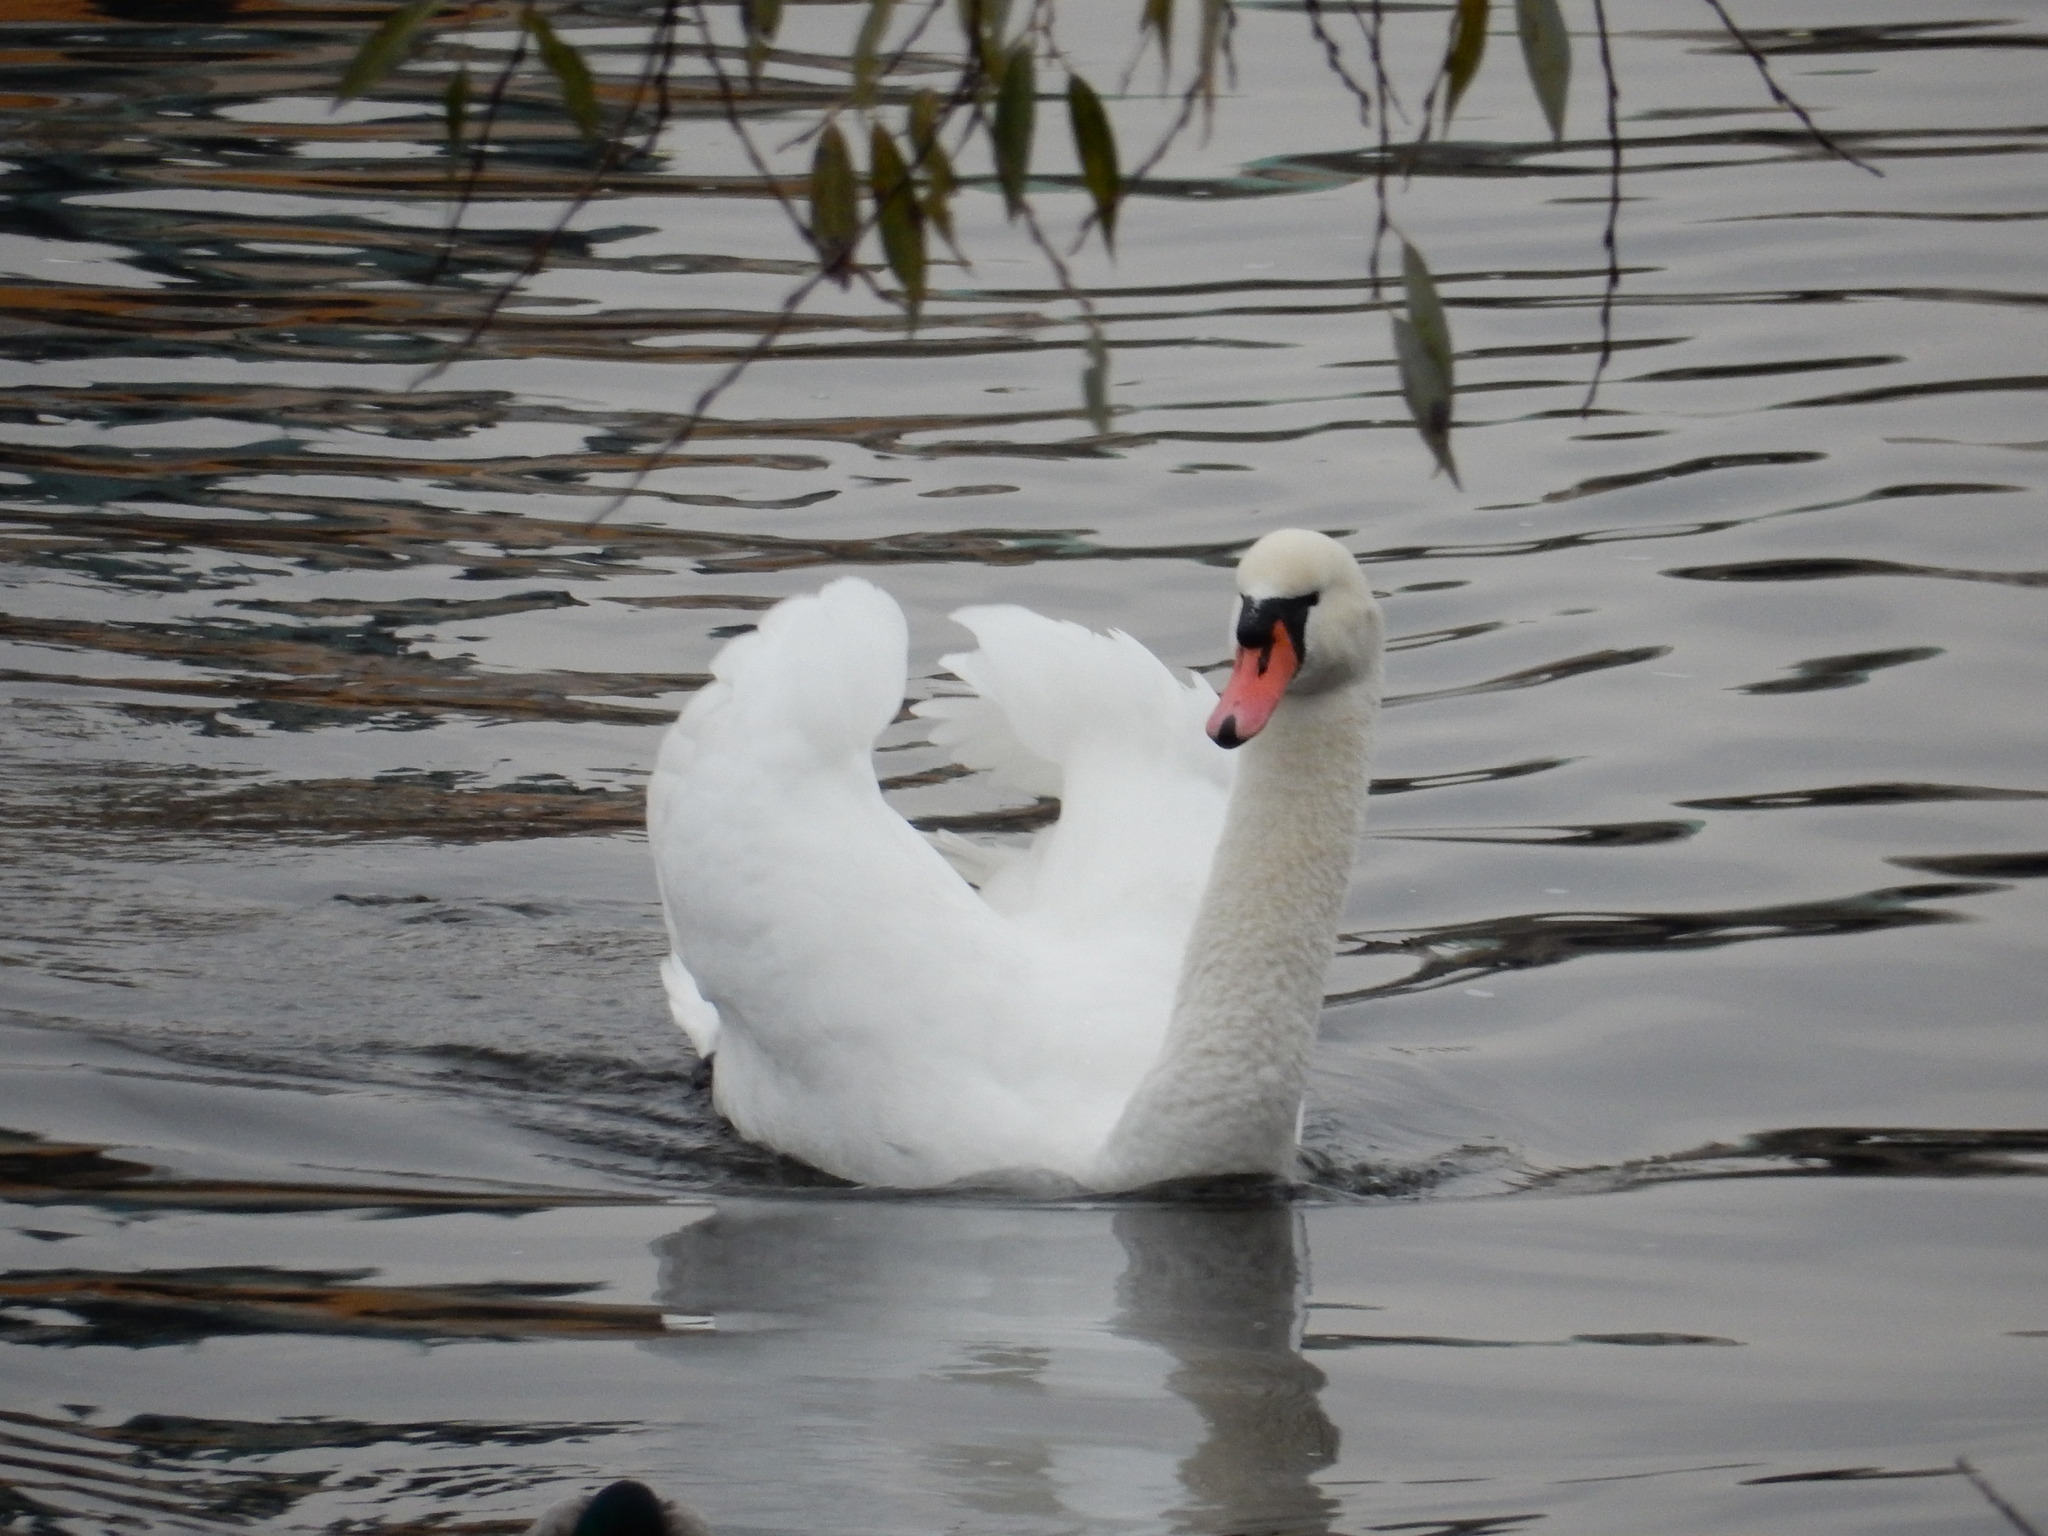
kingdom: Animalia
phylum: Chordata
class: Aves
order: Anseriformes
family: Anatidae
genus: Cygnus
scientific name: Cygnus olor
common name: Mute swan
